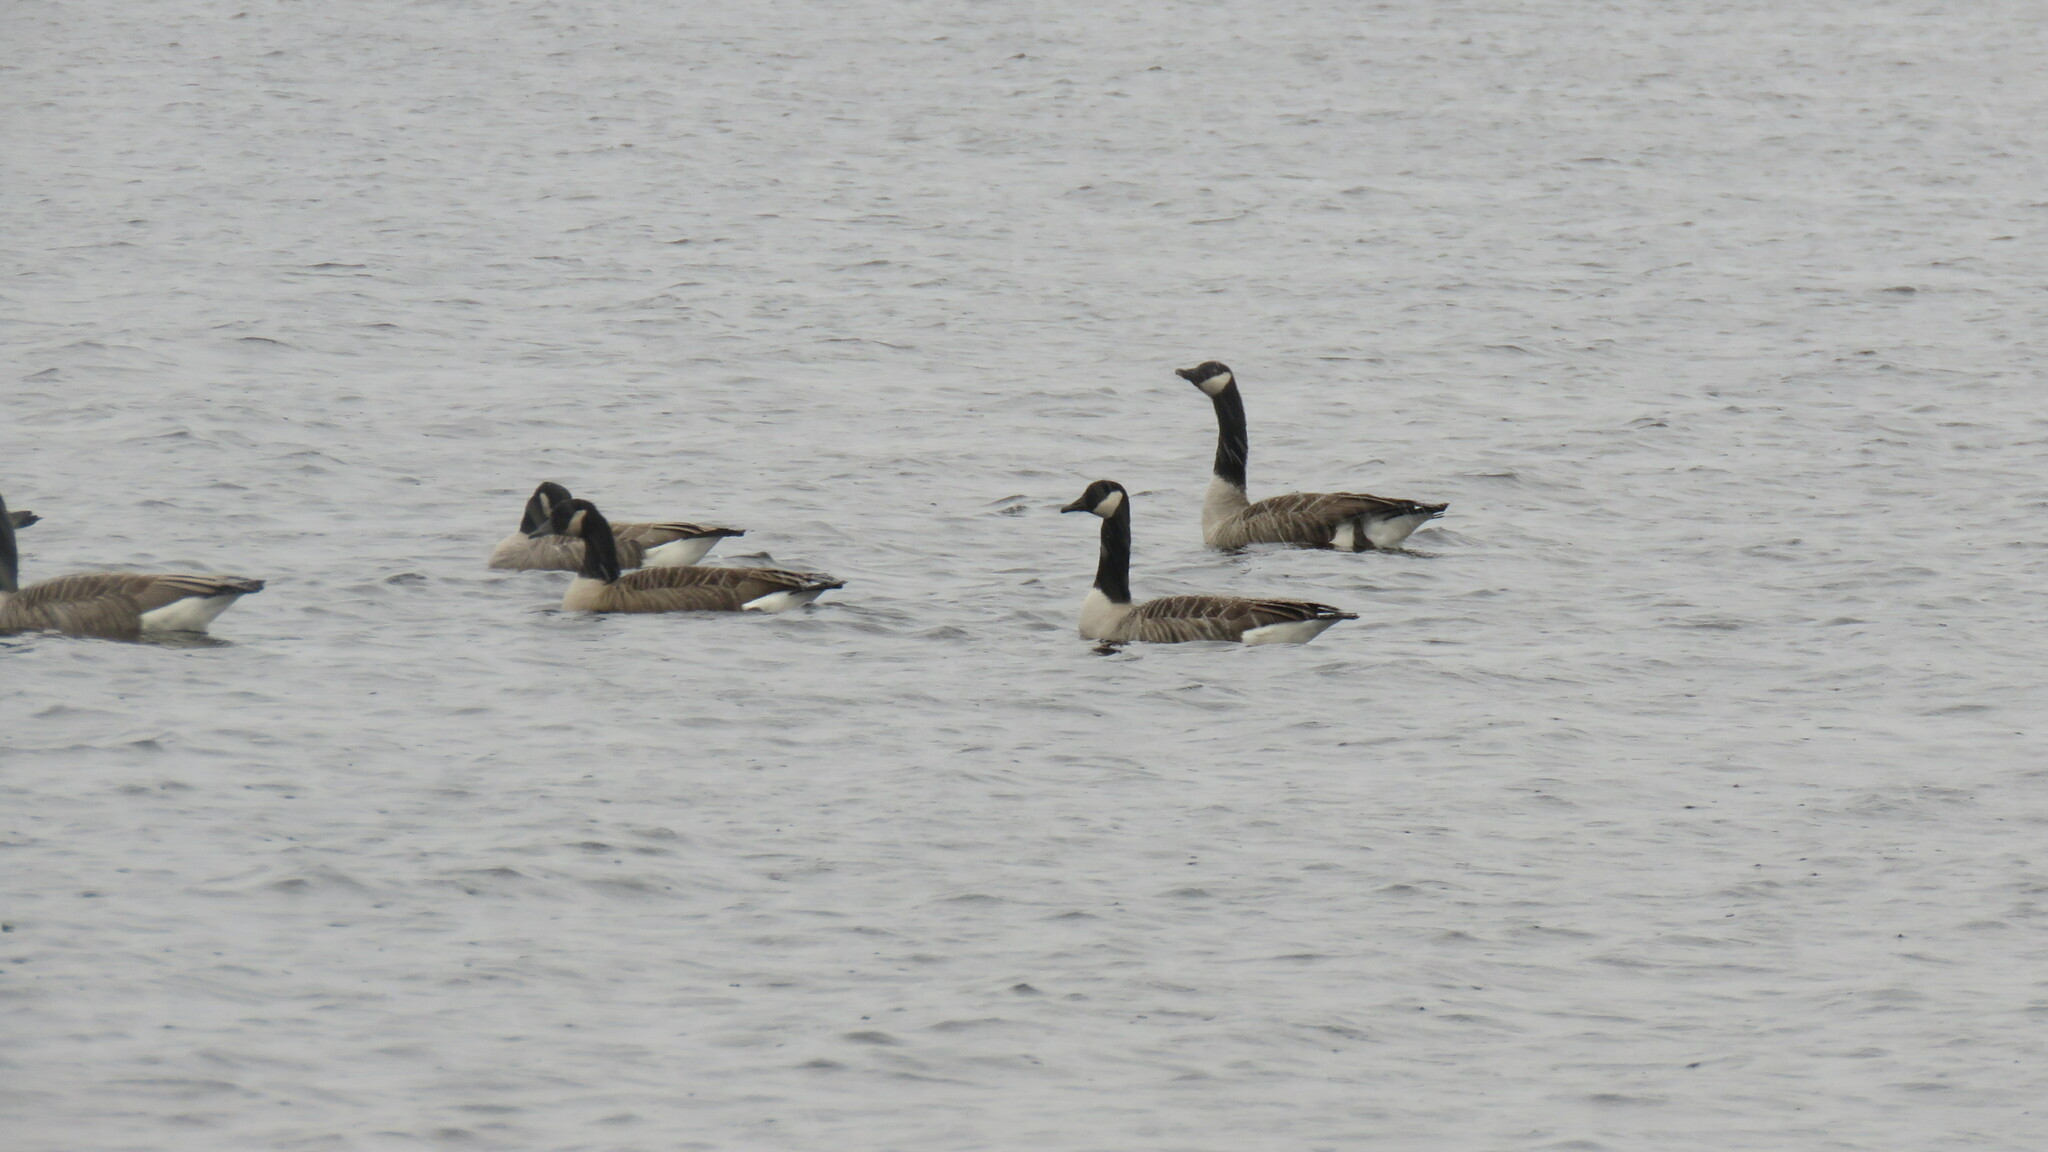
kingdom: Animalia
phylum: Chordata
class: Aves
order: Anseriformes
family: Anatidae
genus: Branta
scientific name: Branta canadensis
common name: Canada goose
